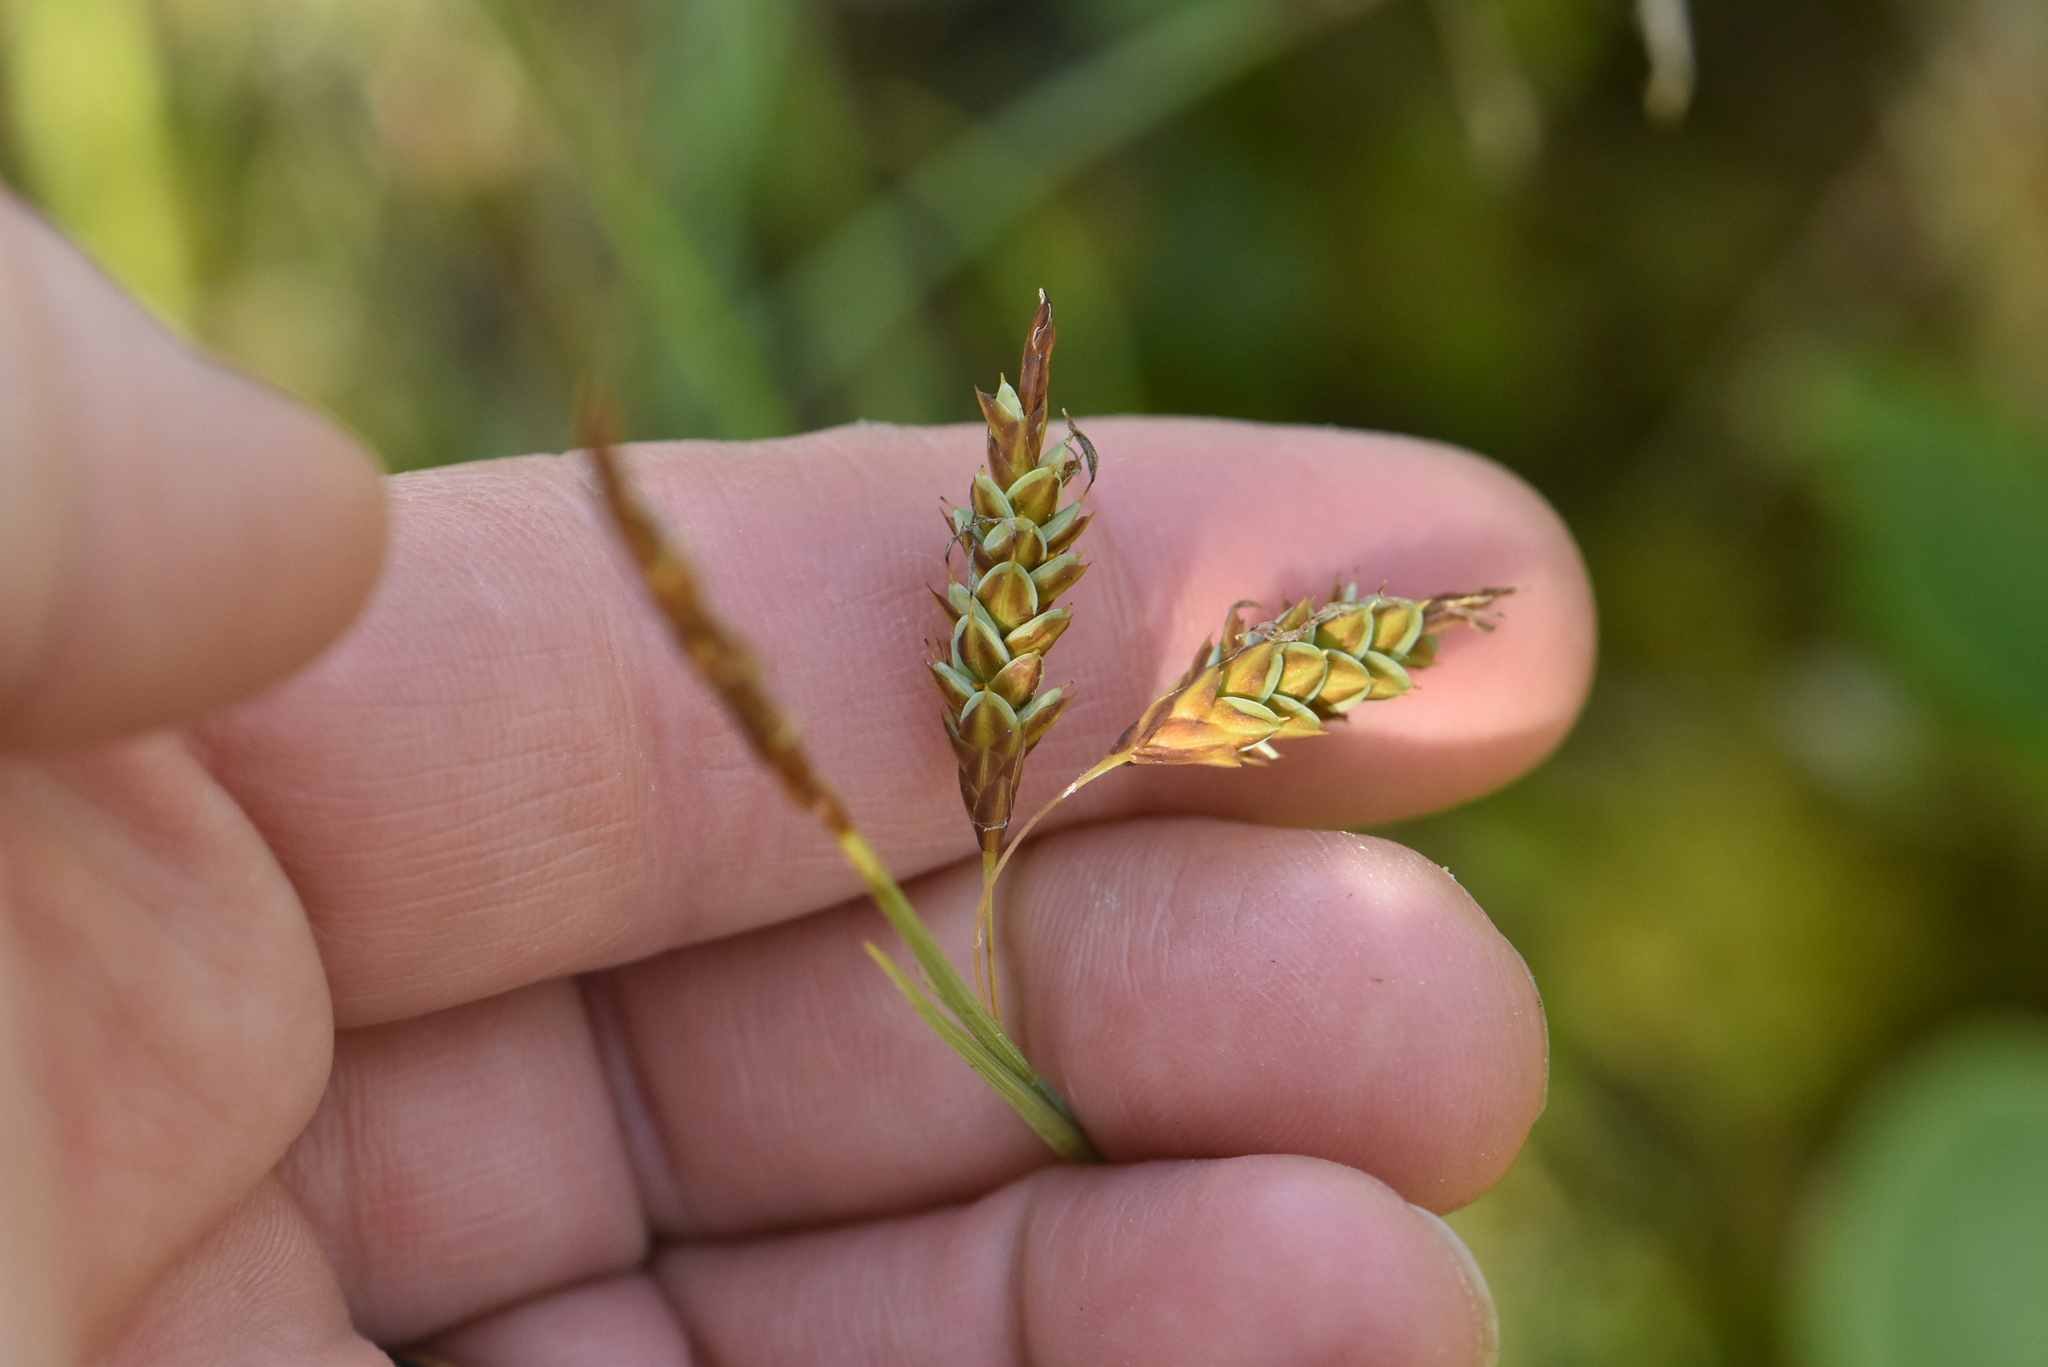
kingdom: Plantae
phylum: Tracheophyta
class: Liliopsida
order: Poales
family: Cyperaceae
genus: Carex
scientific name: Carex limosa
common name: Bog sedge
